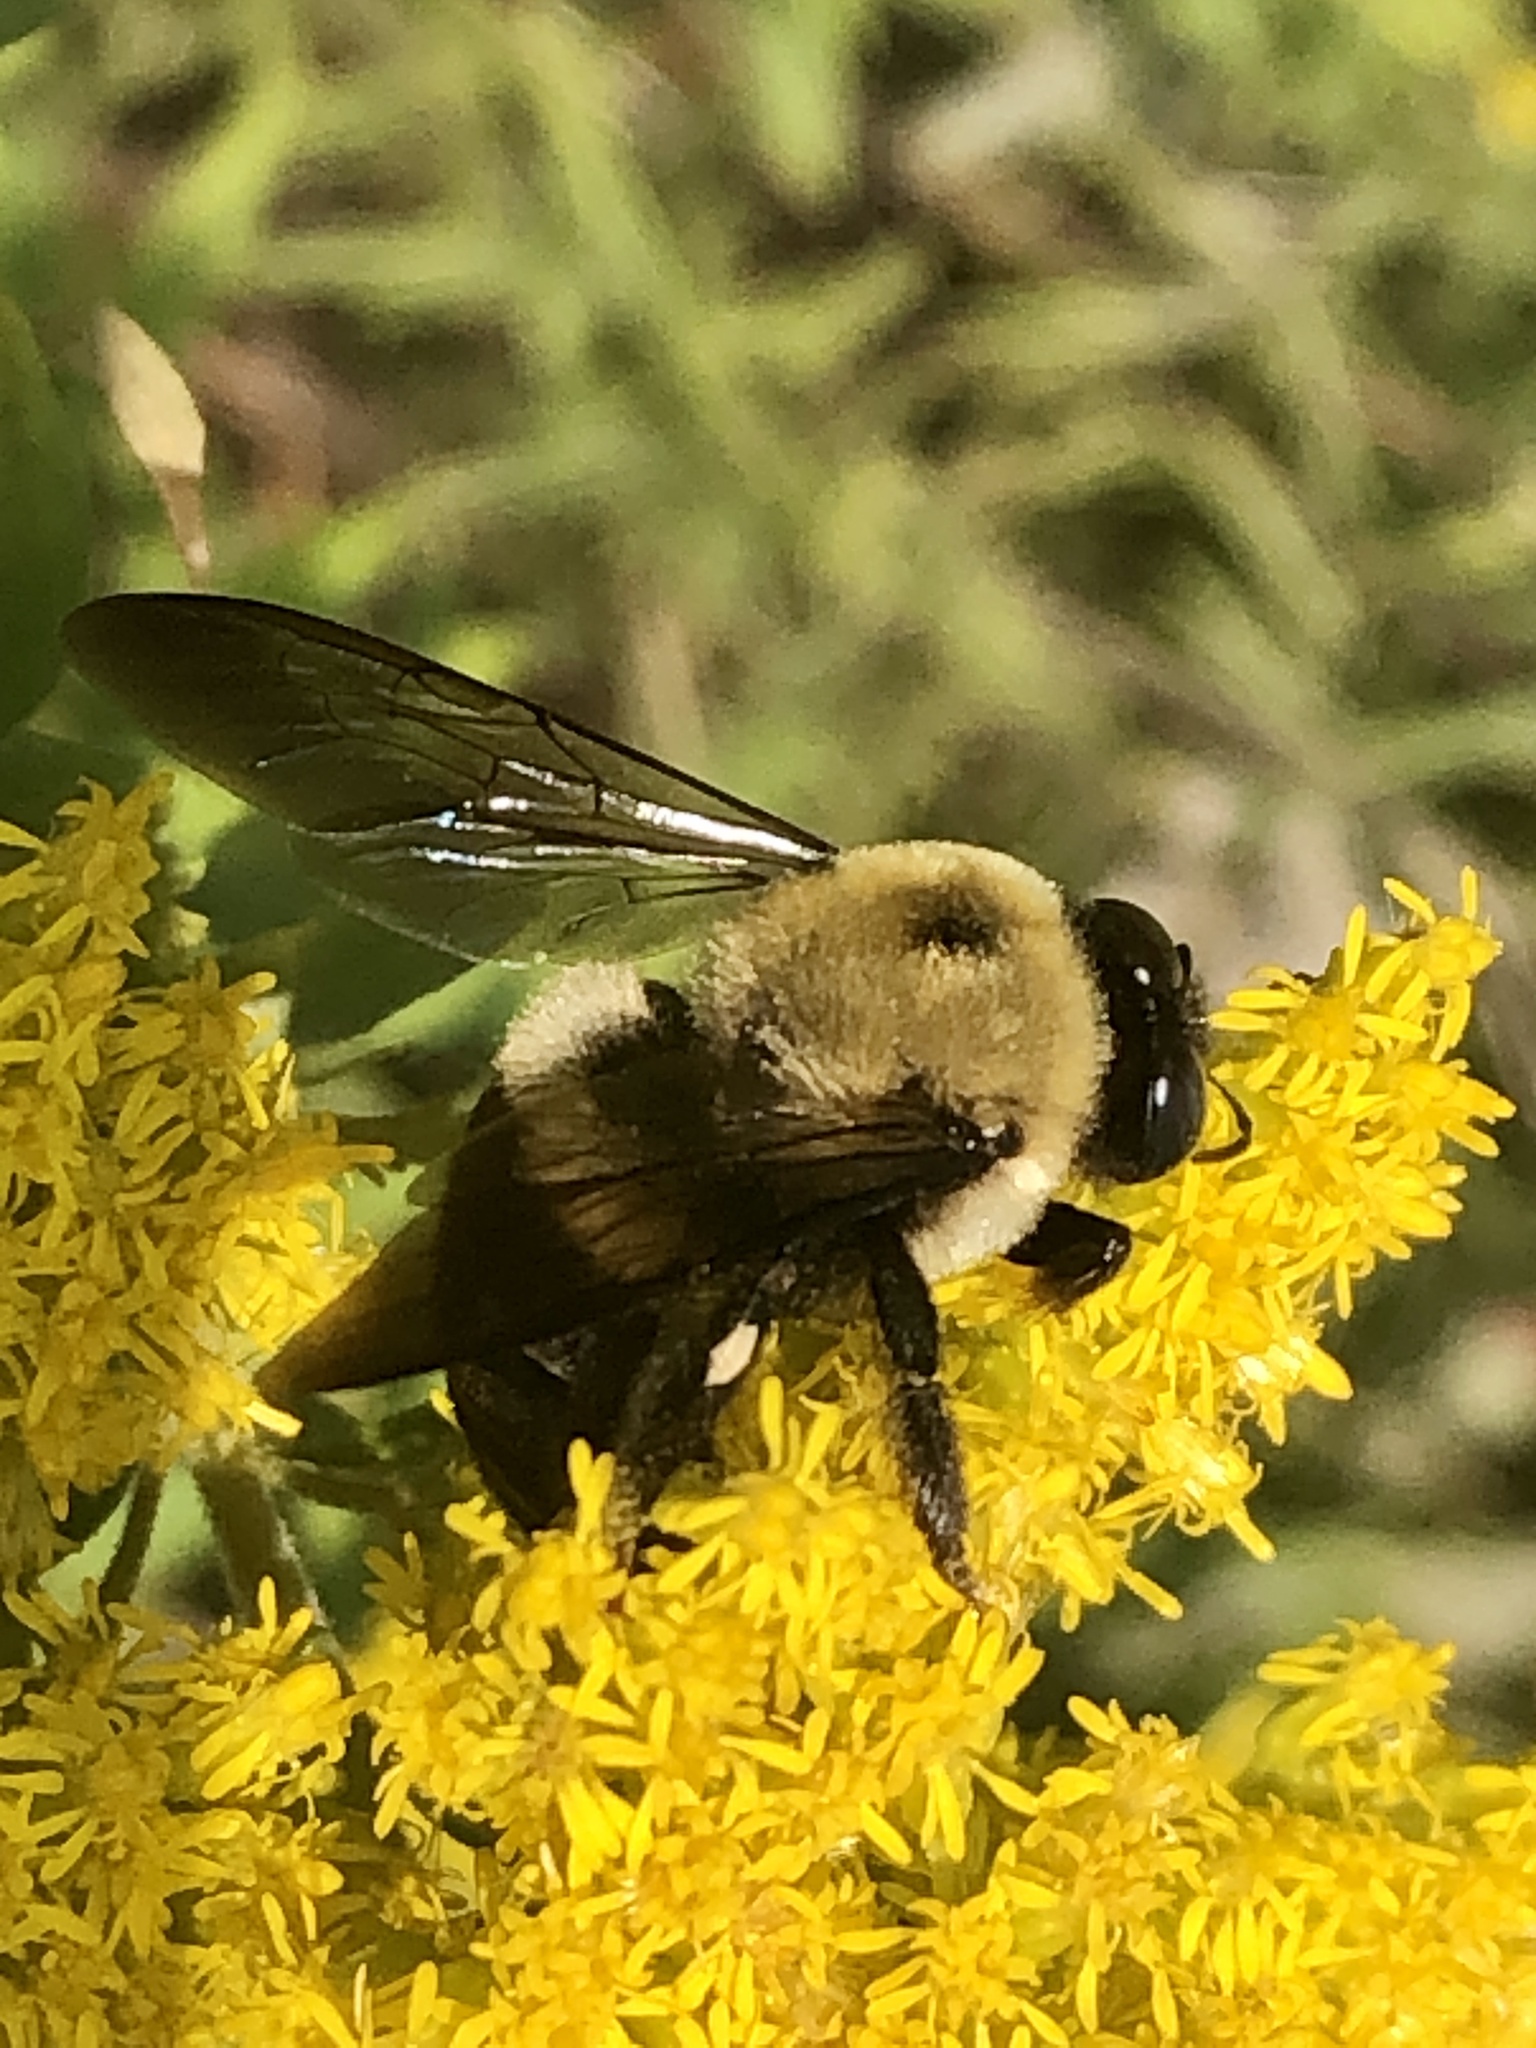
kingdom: Animalia
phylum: Arthropoda
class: Insecta
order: Hymenoptera
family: Apidae
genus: Xylocopa
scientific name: Xylocopa virginica
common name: Carpenter bee
